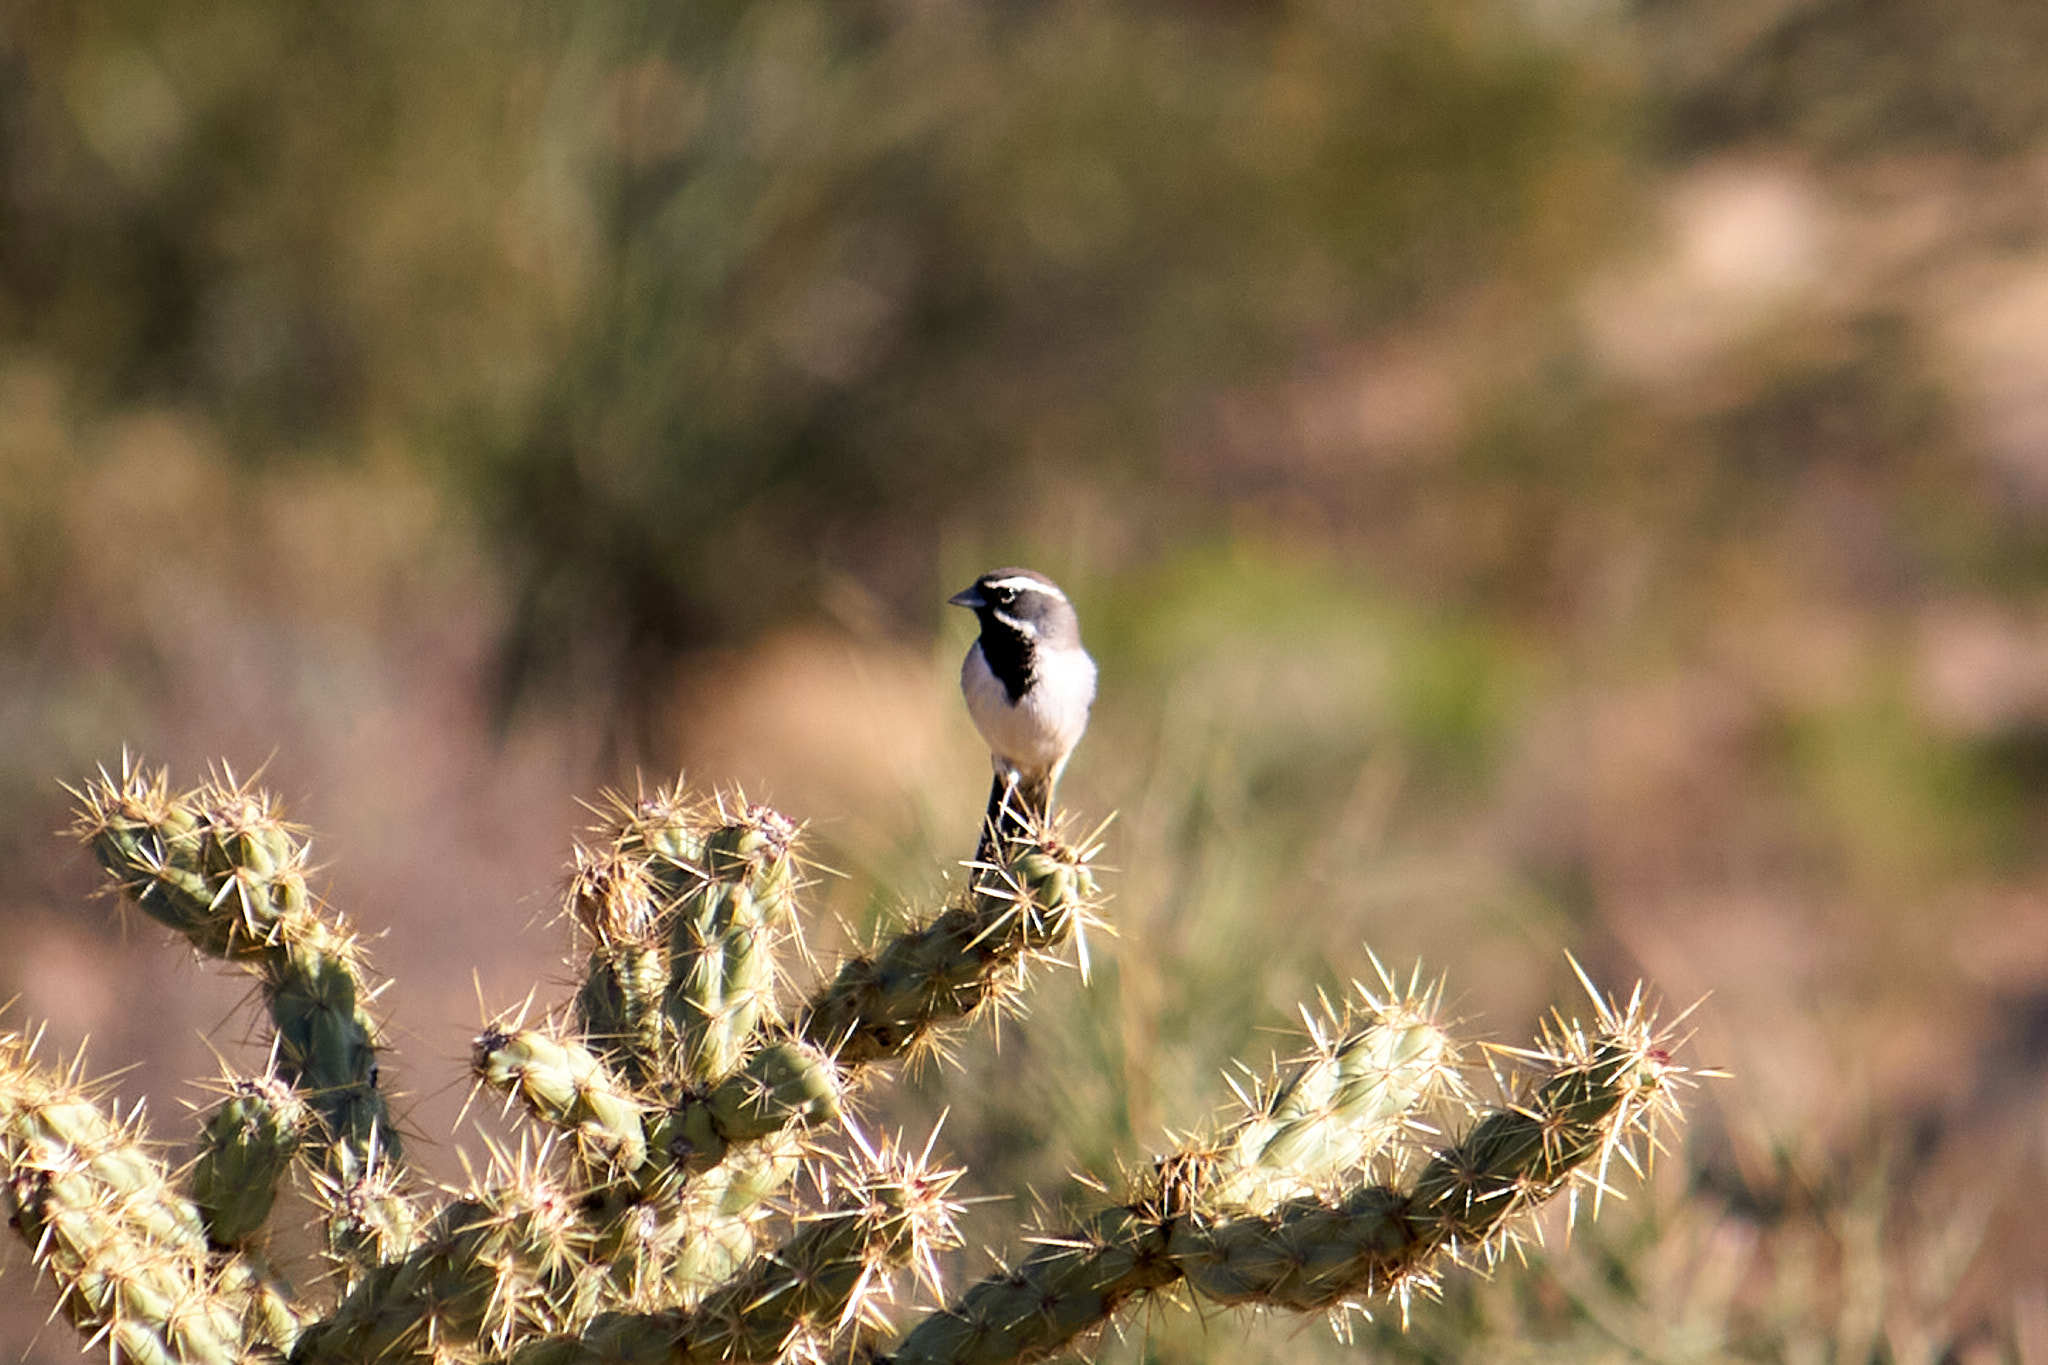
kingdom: Animalia
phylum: Chordata
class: Aves
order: Passeriformes
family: Passerellidae
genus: Amphispiza
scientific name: Amphispiza bilineata
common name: Black-throated sparrow
